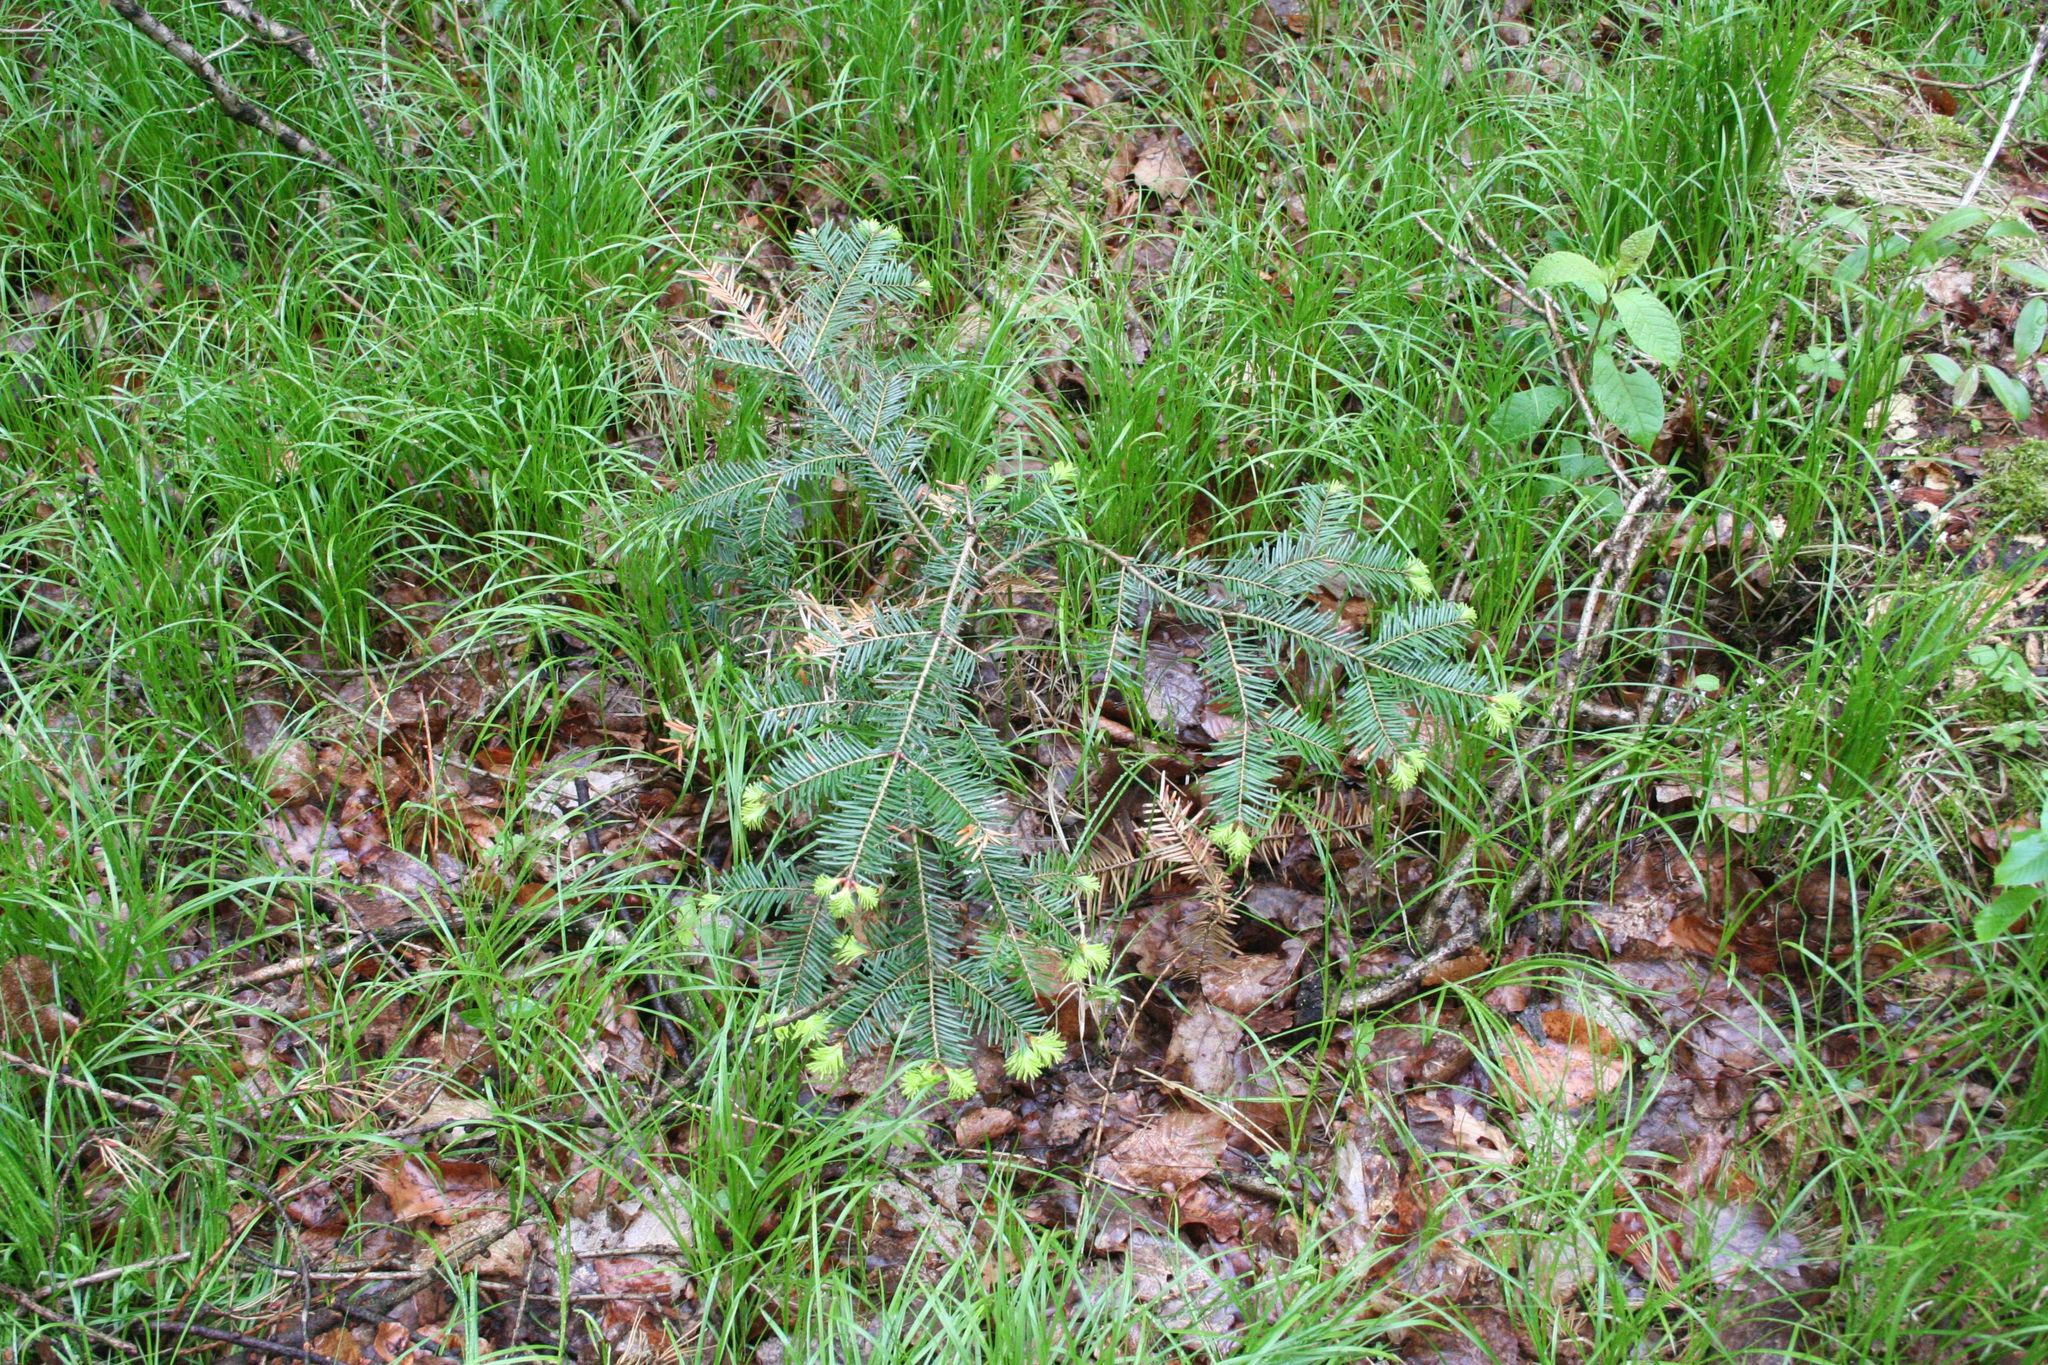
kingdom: Plantae
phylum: Tracheophyta
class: Pinopsida
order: Pinales
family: Pinaceae
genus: Picea
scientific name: Picea abies
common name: Norway spruce
